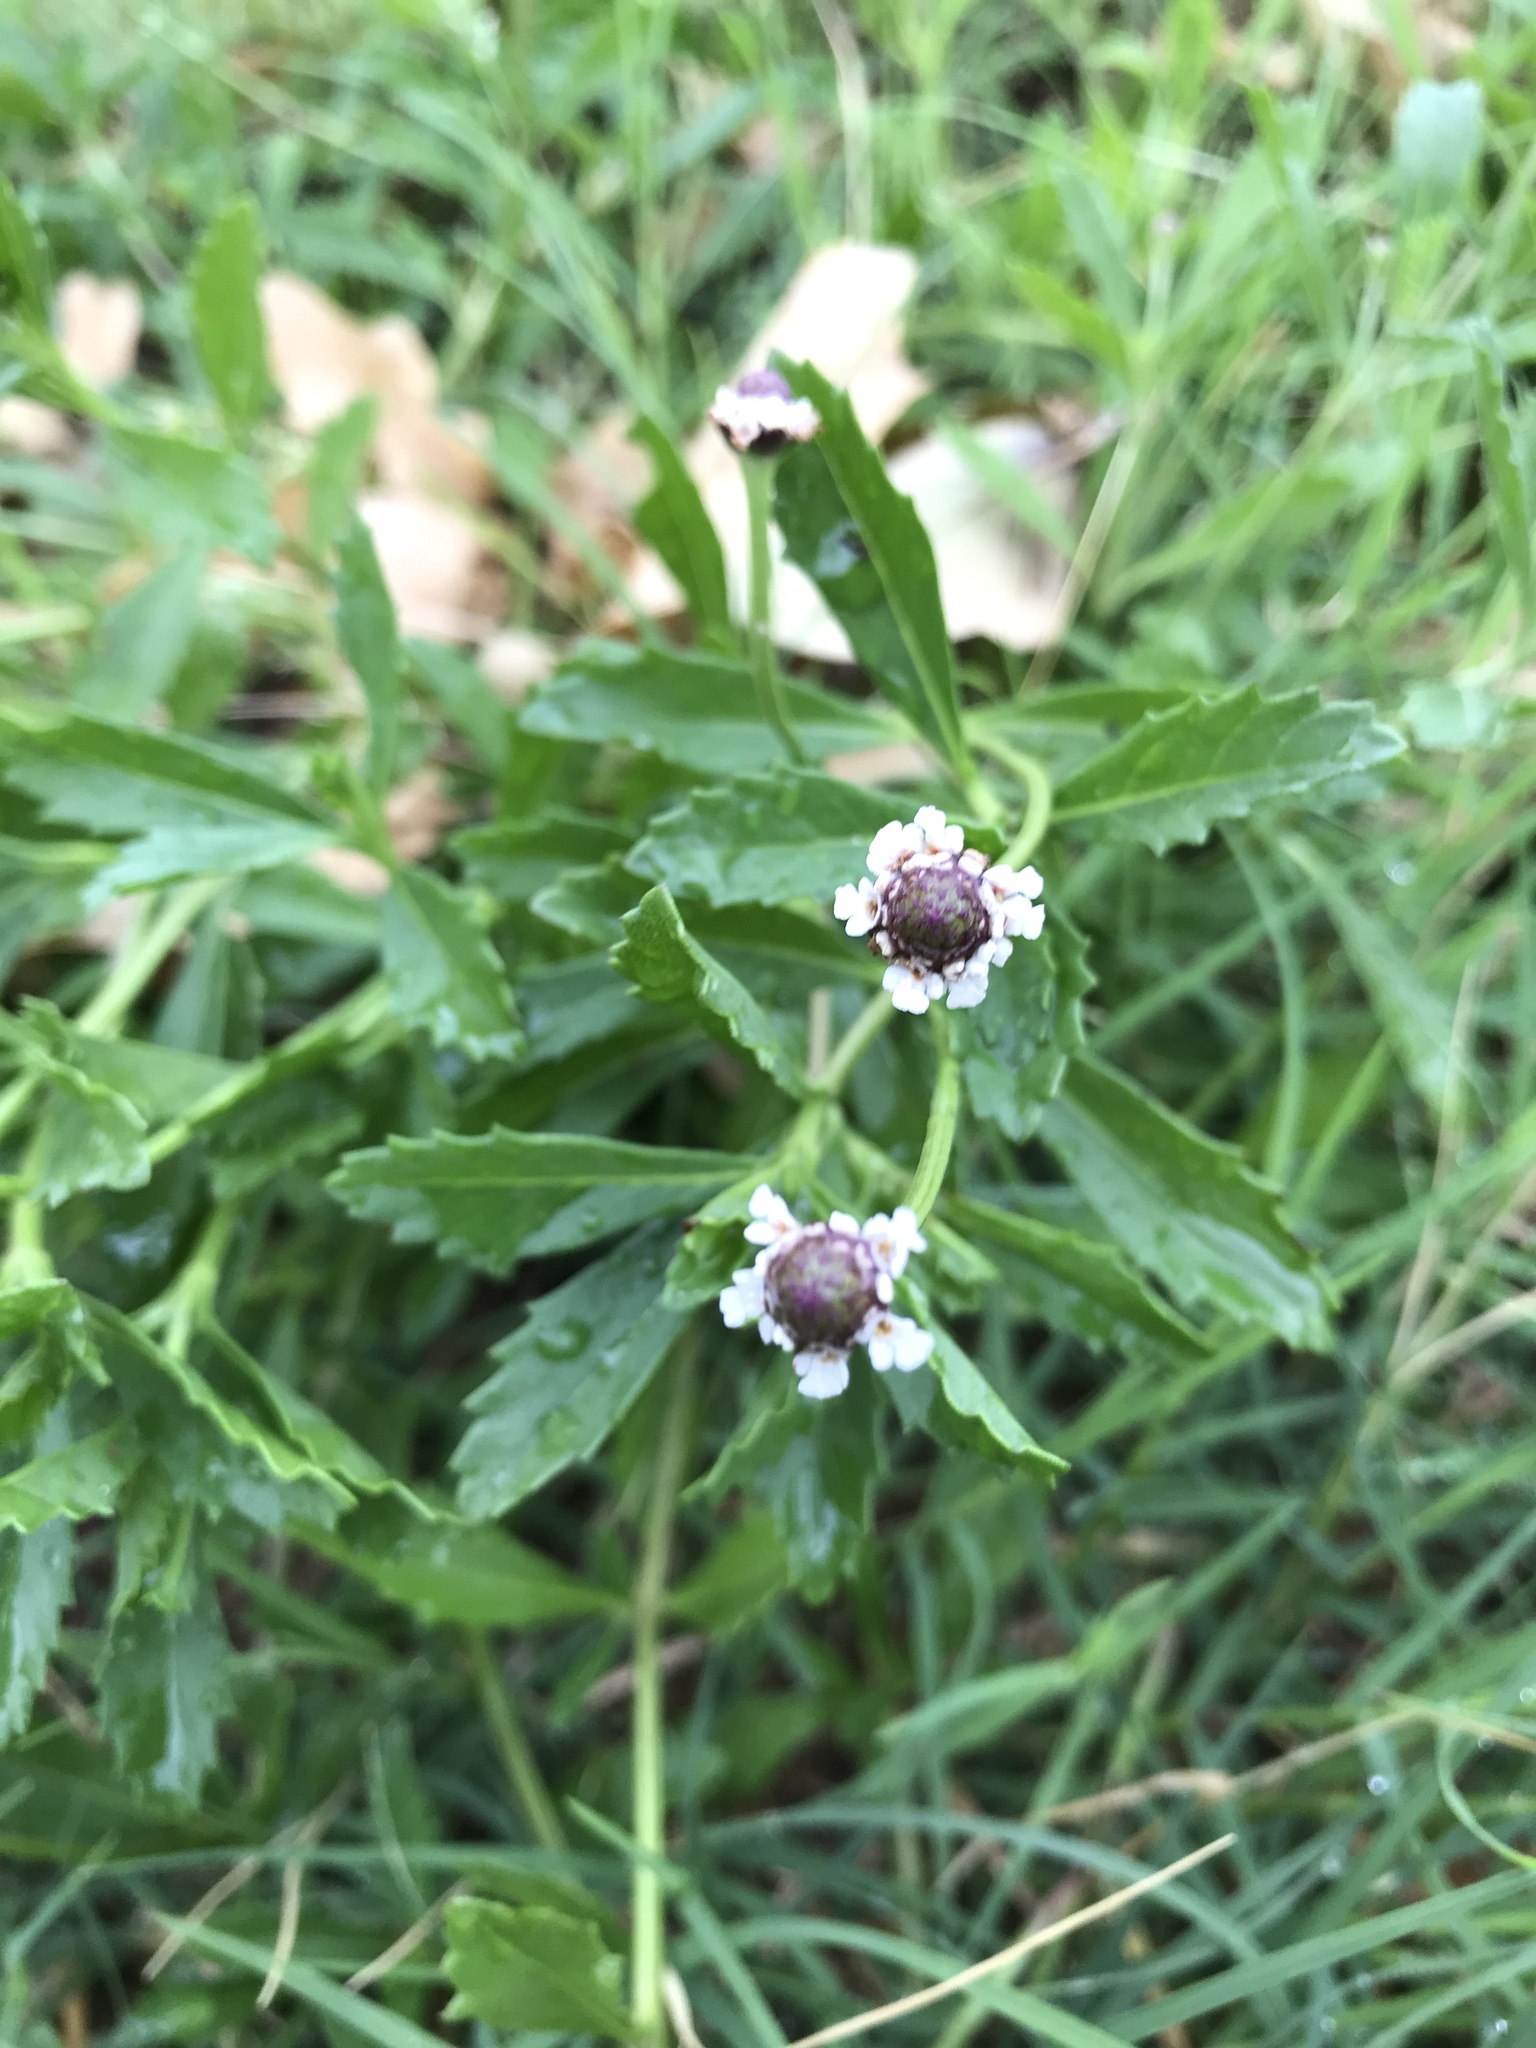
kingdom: Plantae
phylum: Tracheophyta
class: Magnoliopsida
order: Lamiales
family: Verbenaceae
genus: Phyla
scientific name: Phyla nodiflora
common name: Frogfruit
